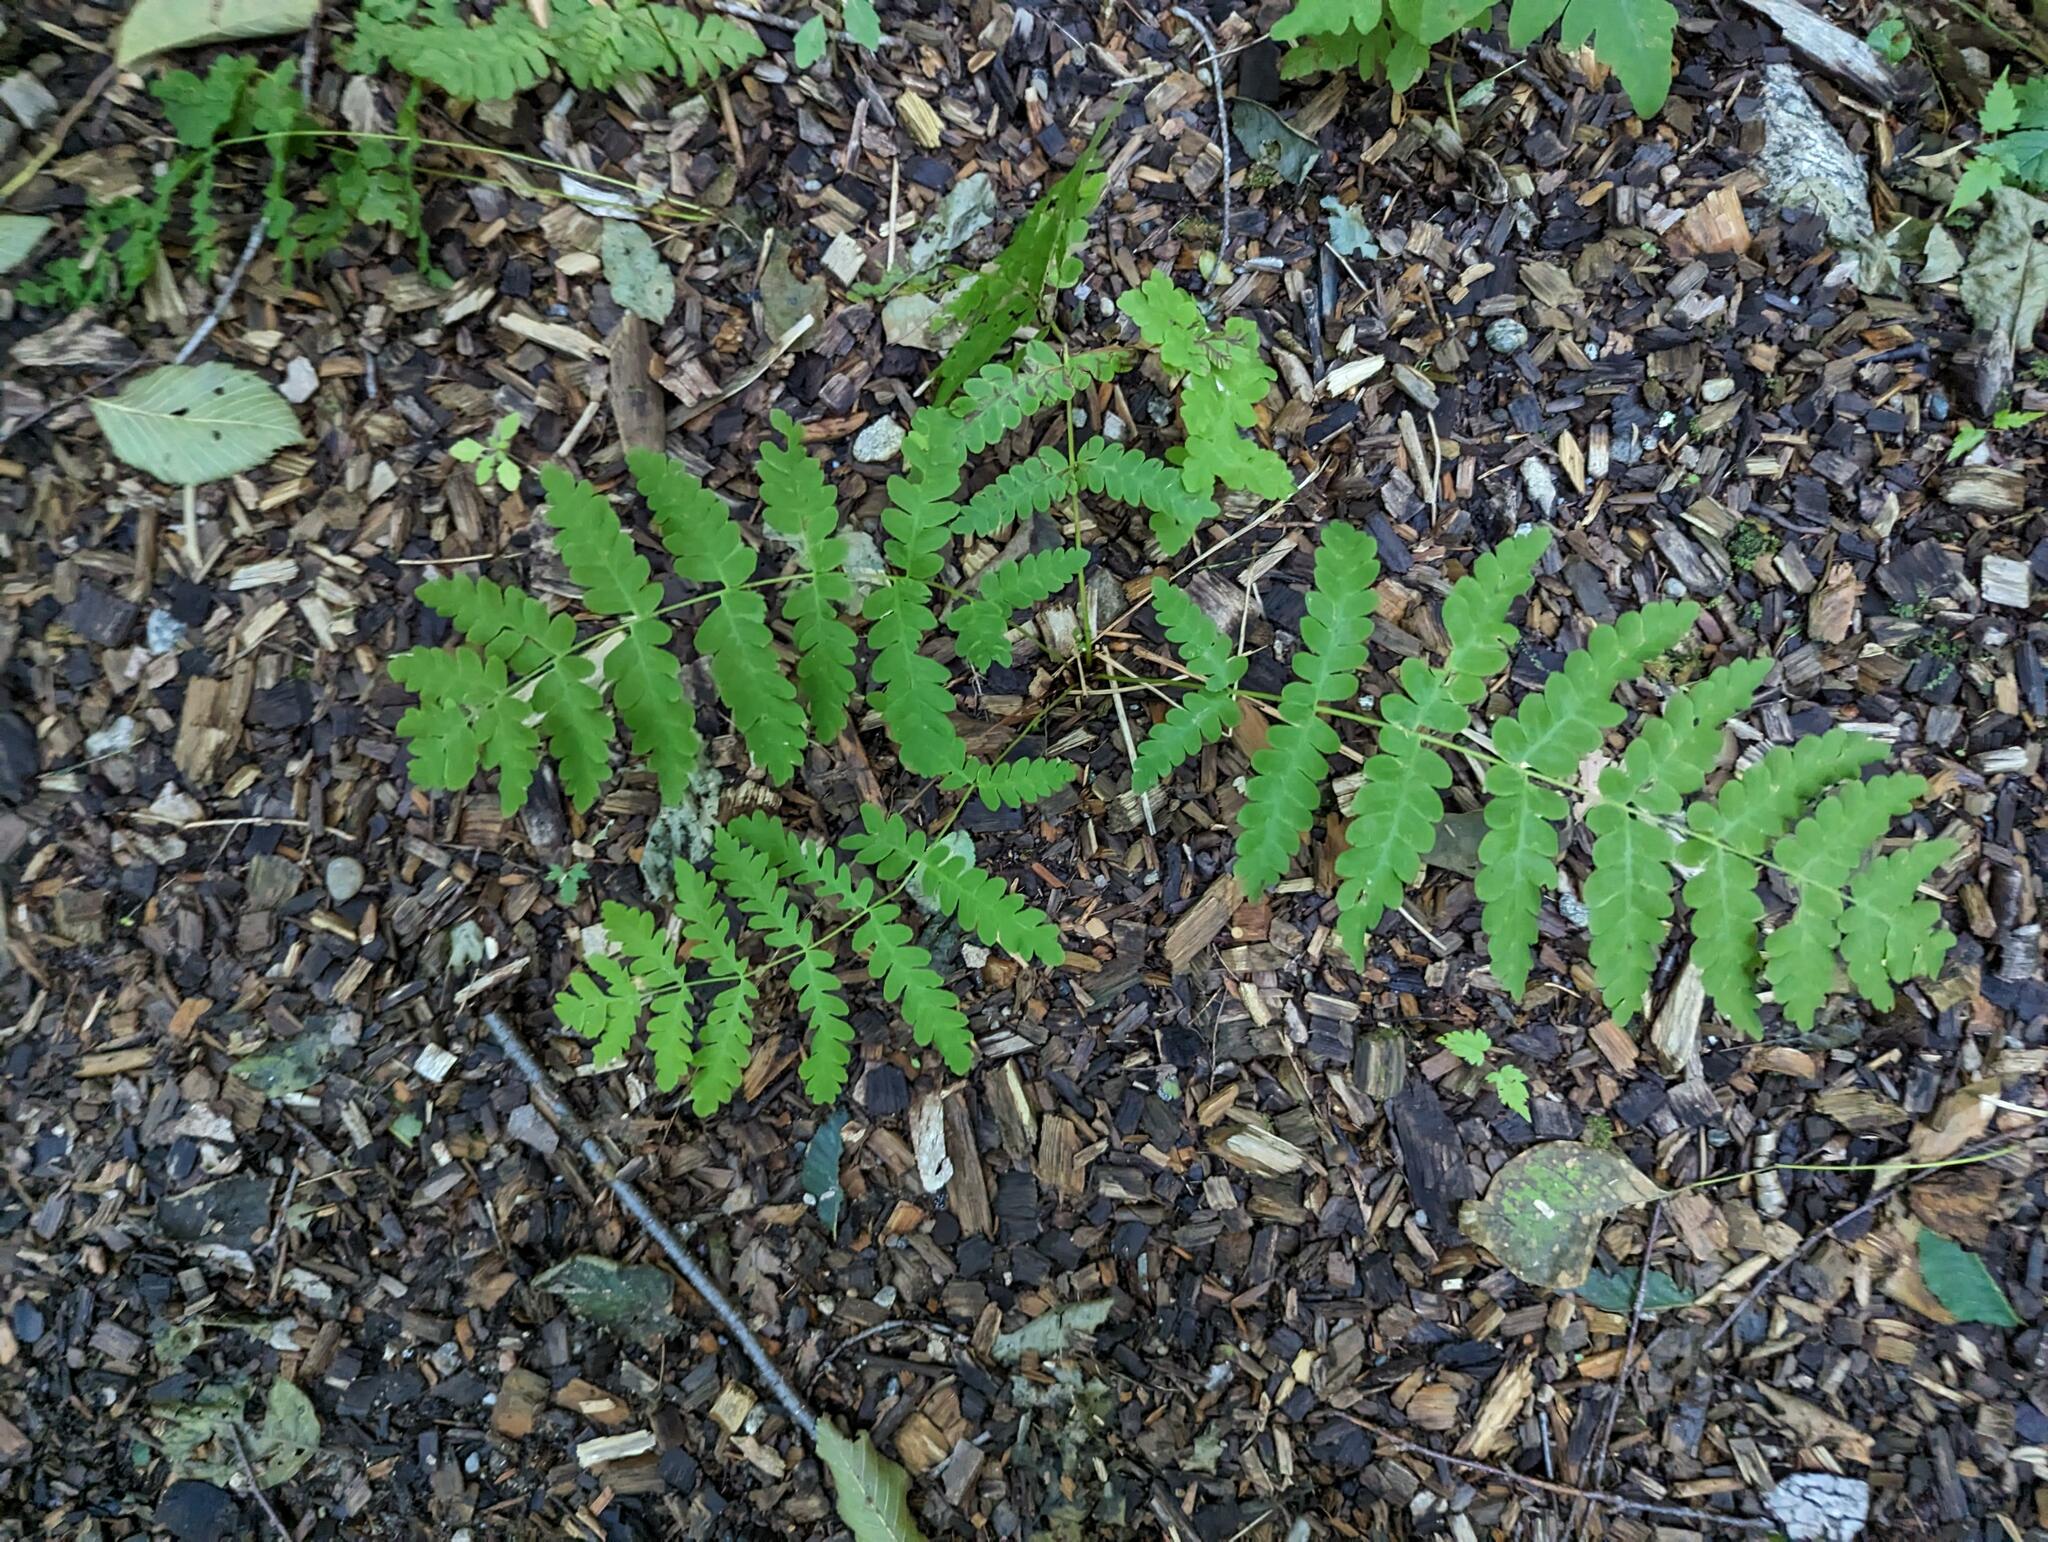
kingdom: Plantae
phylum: Tracheophyta
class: Polypodiopsida
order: Osmundales
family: Osmundaceae
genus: Claytosmunda
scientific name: Claytosmunda claytoniana
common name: Clayton's fern
